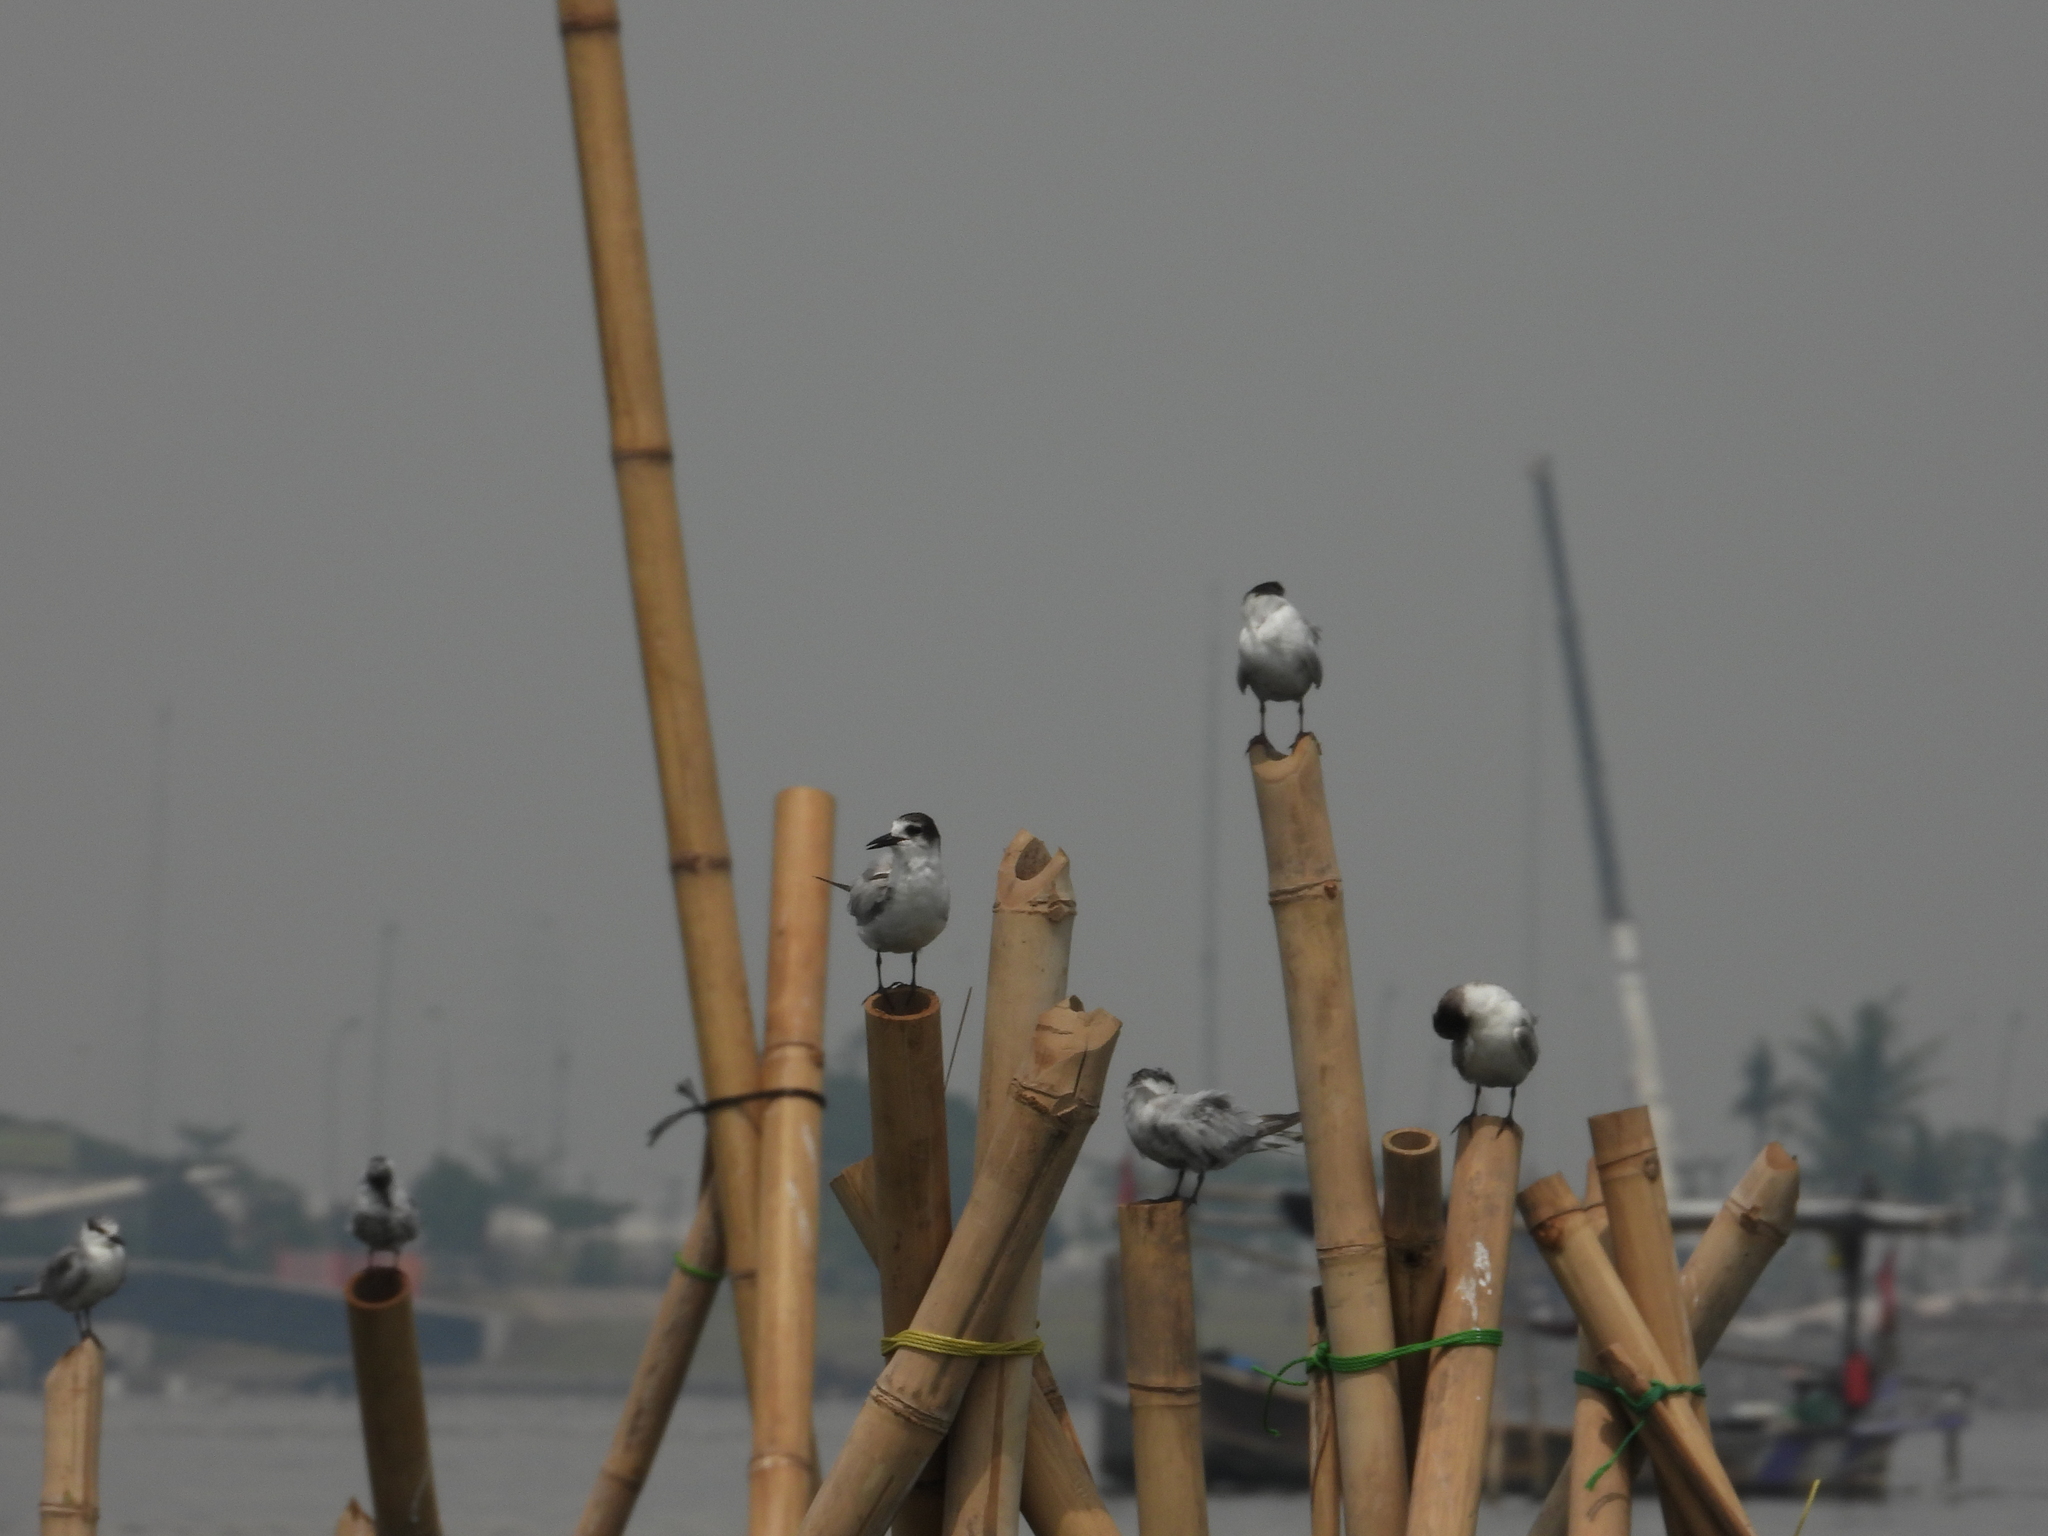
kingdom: Animalia
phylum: Chordata
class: Aves
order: Charadriiformes
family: Laridae
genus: Sterna
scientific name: Sterna hirundo
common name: Common tern
